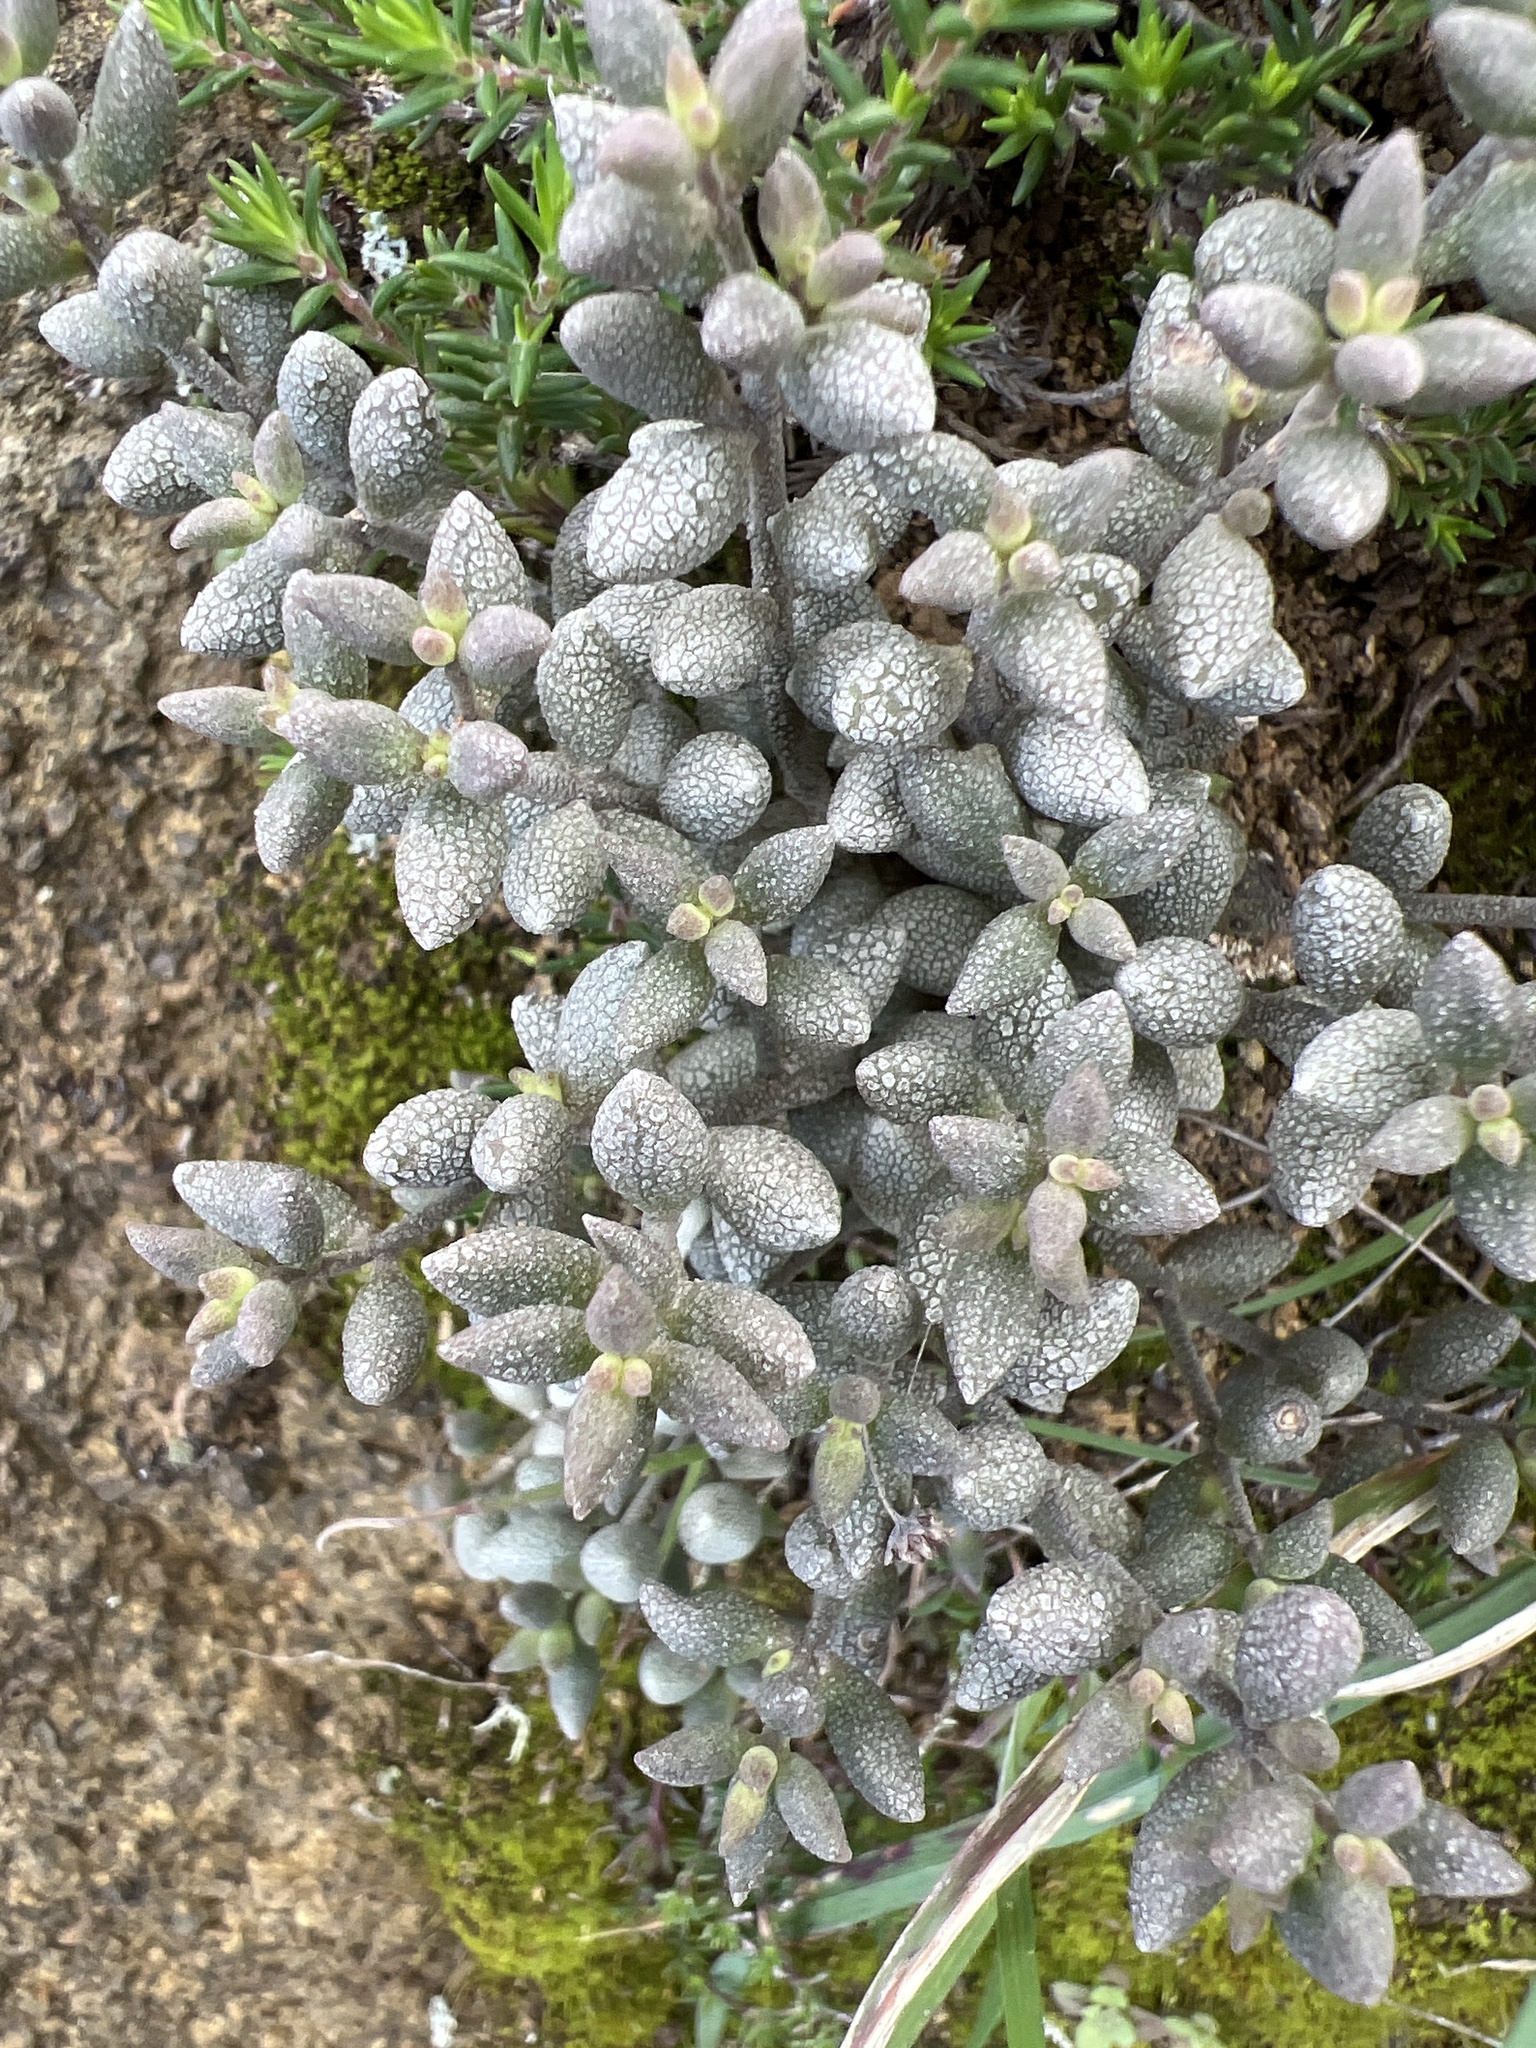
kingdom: Plantae
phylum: Tracheophyta
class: Magnoliopsida
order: Saxifragales
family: Crassulaceae
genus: Monanthes
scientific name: Monanthes laxiflora
